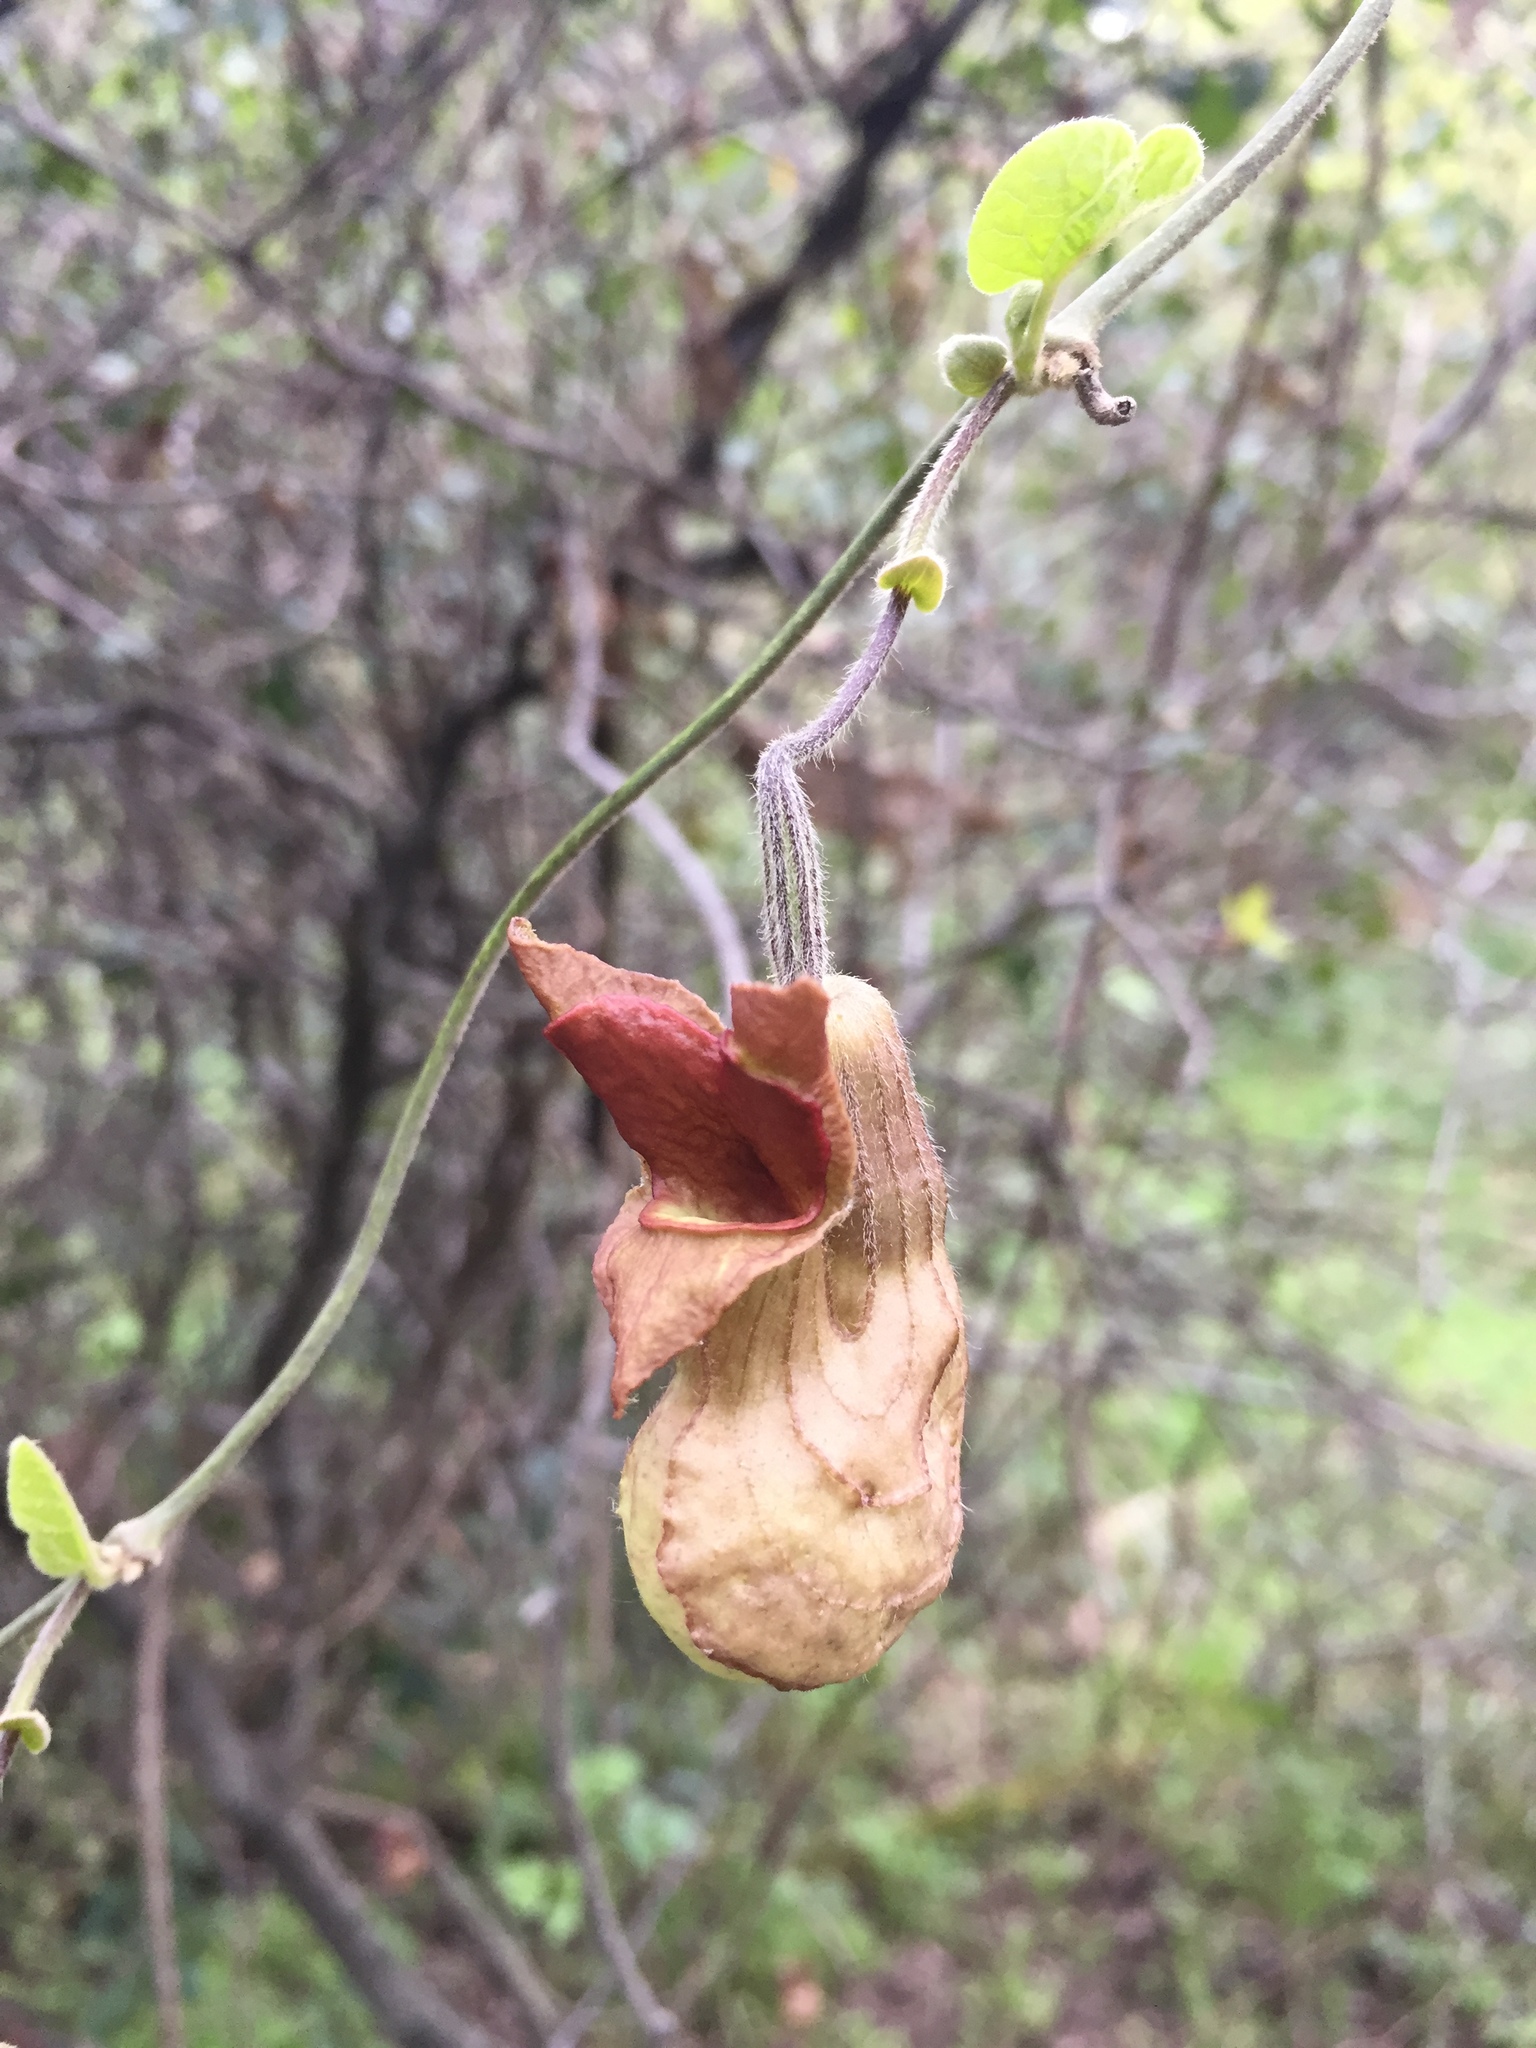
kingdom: Plantae
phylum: Tracheophyta
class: Magnoliopsida
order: Piperales
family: Aristolochiaceae
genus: Isotrema
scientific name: Isotrema californicum
